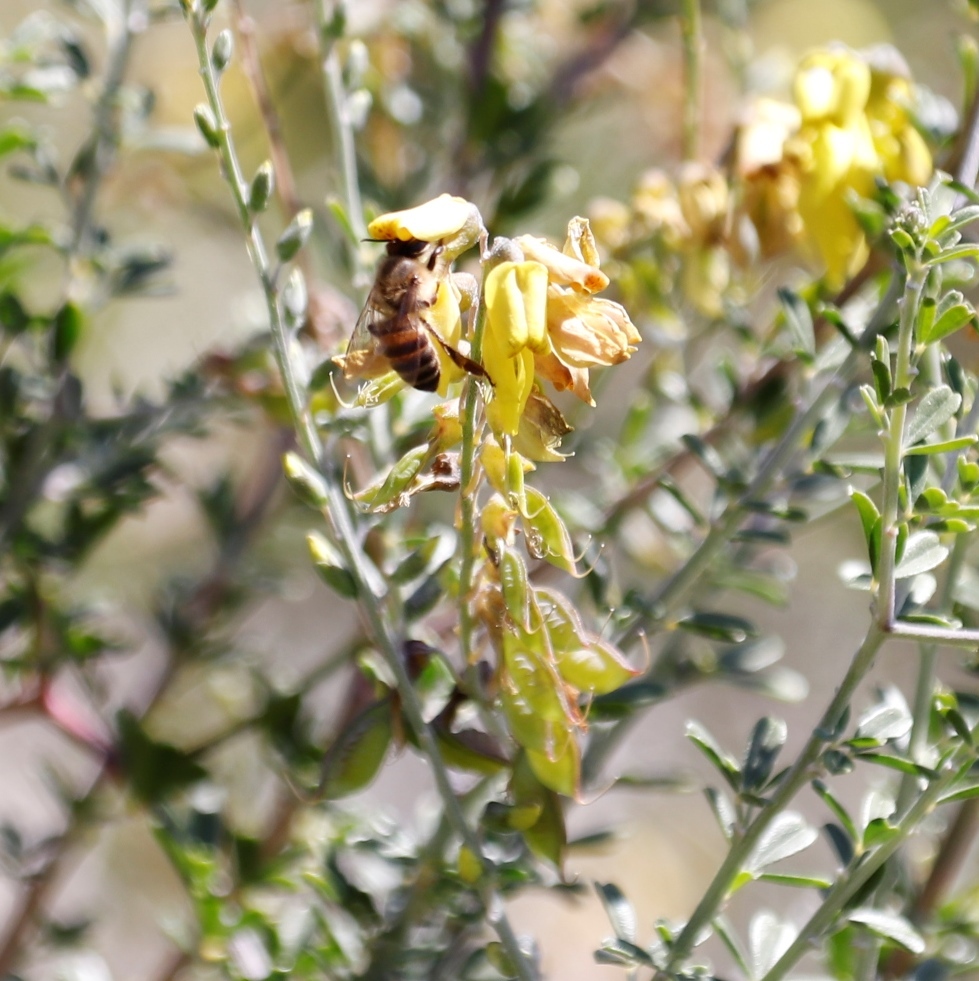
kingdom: Animalia
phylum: Arthropoda
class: Insecta
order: Hymenoptera
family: Apidae
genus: Apis
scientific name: Apis mellifera
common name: Honey bee
